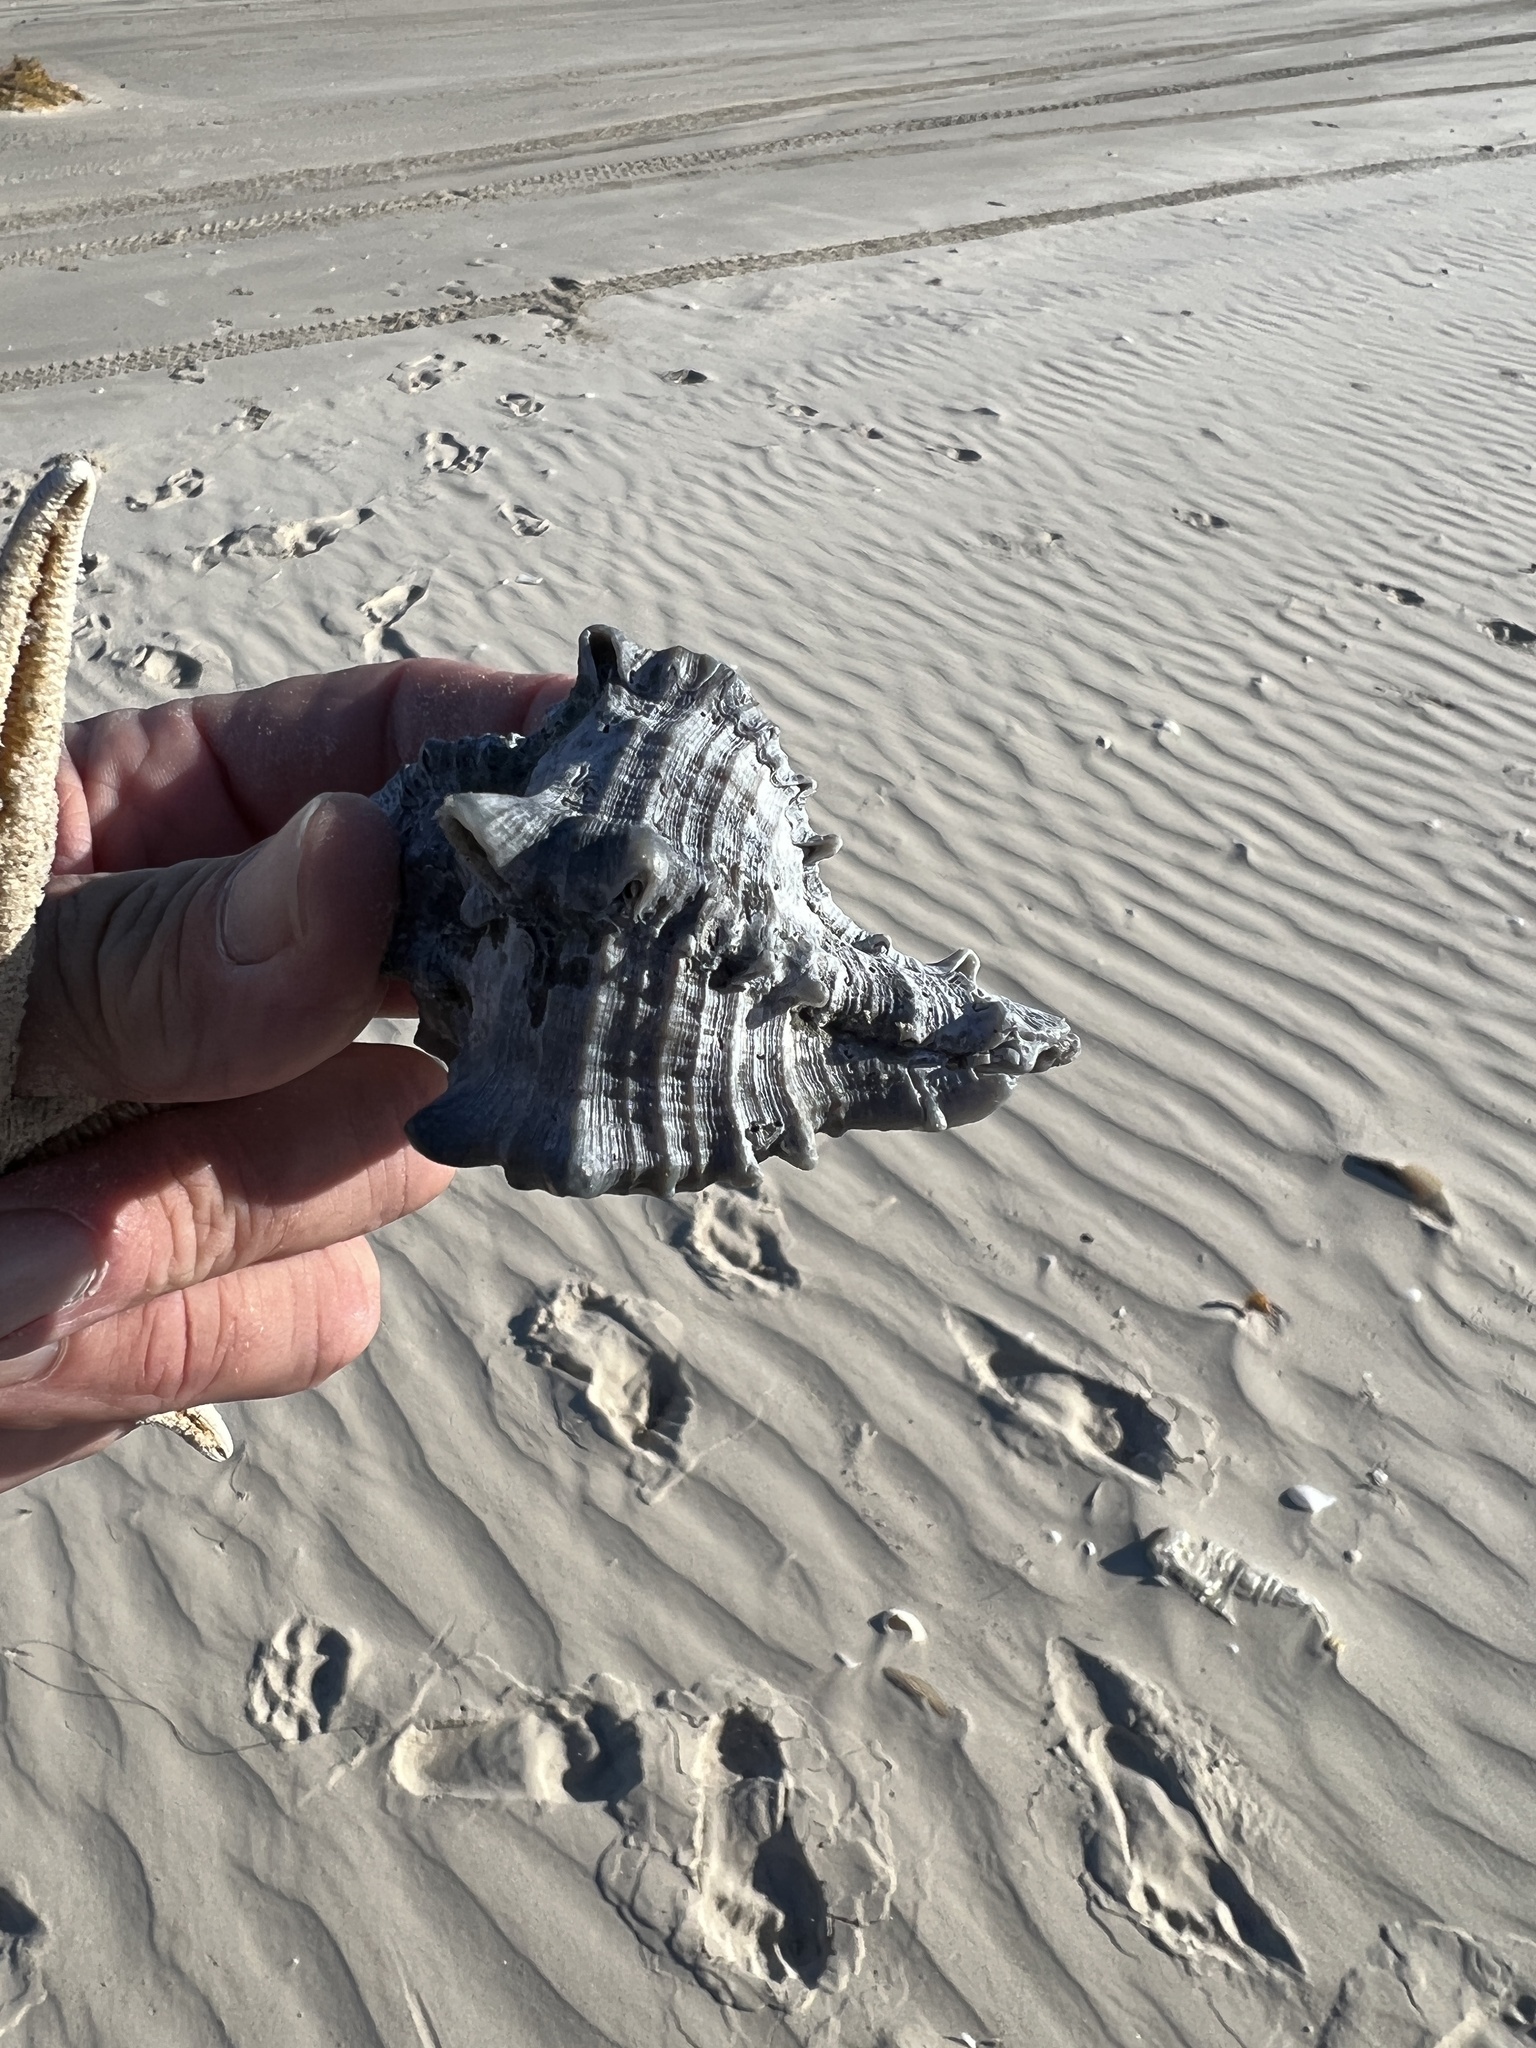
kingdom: Animalia
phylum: Mollusca
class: Gastropoda
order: Neogastropoda
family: Muricidae
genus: Hexaplex
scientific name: Hexaplex fulvescens
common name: Tawny murex
